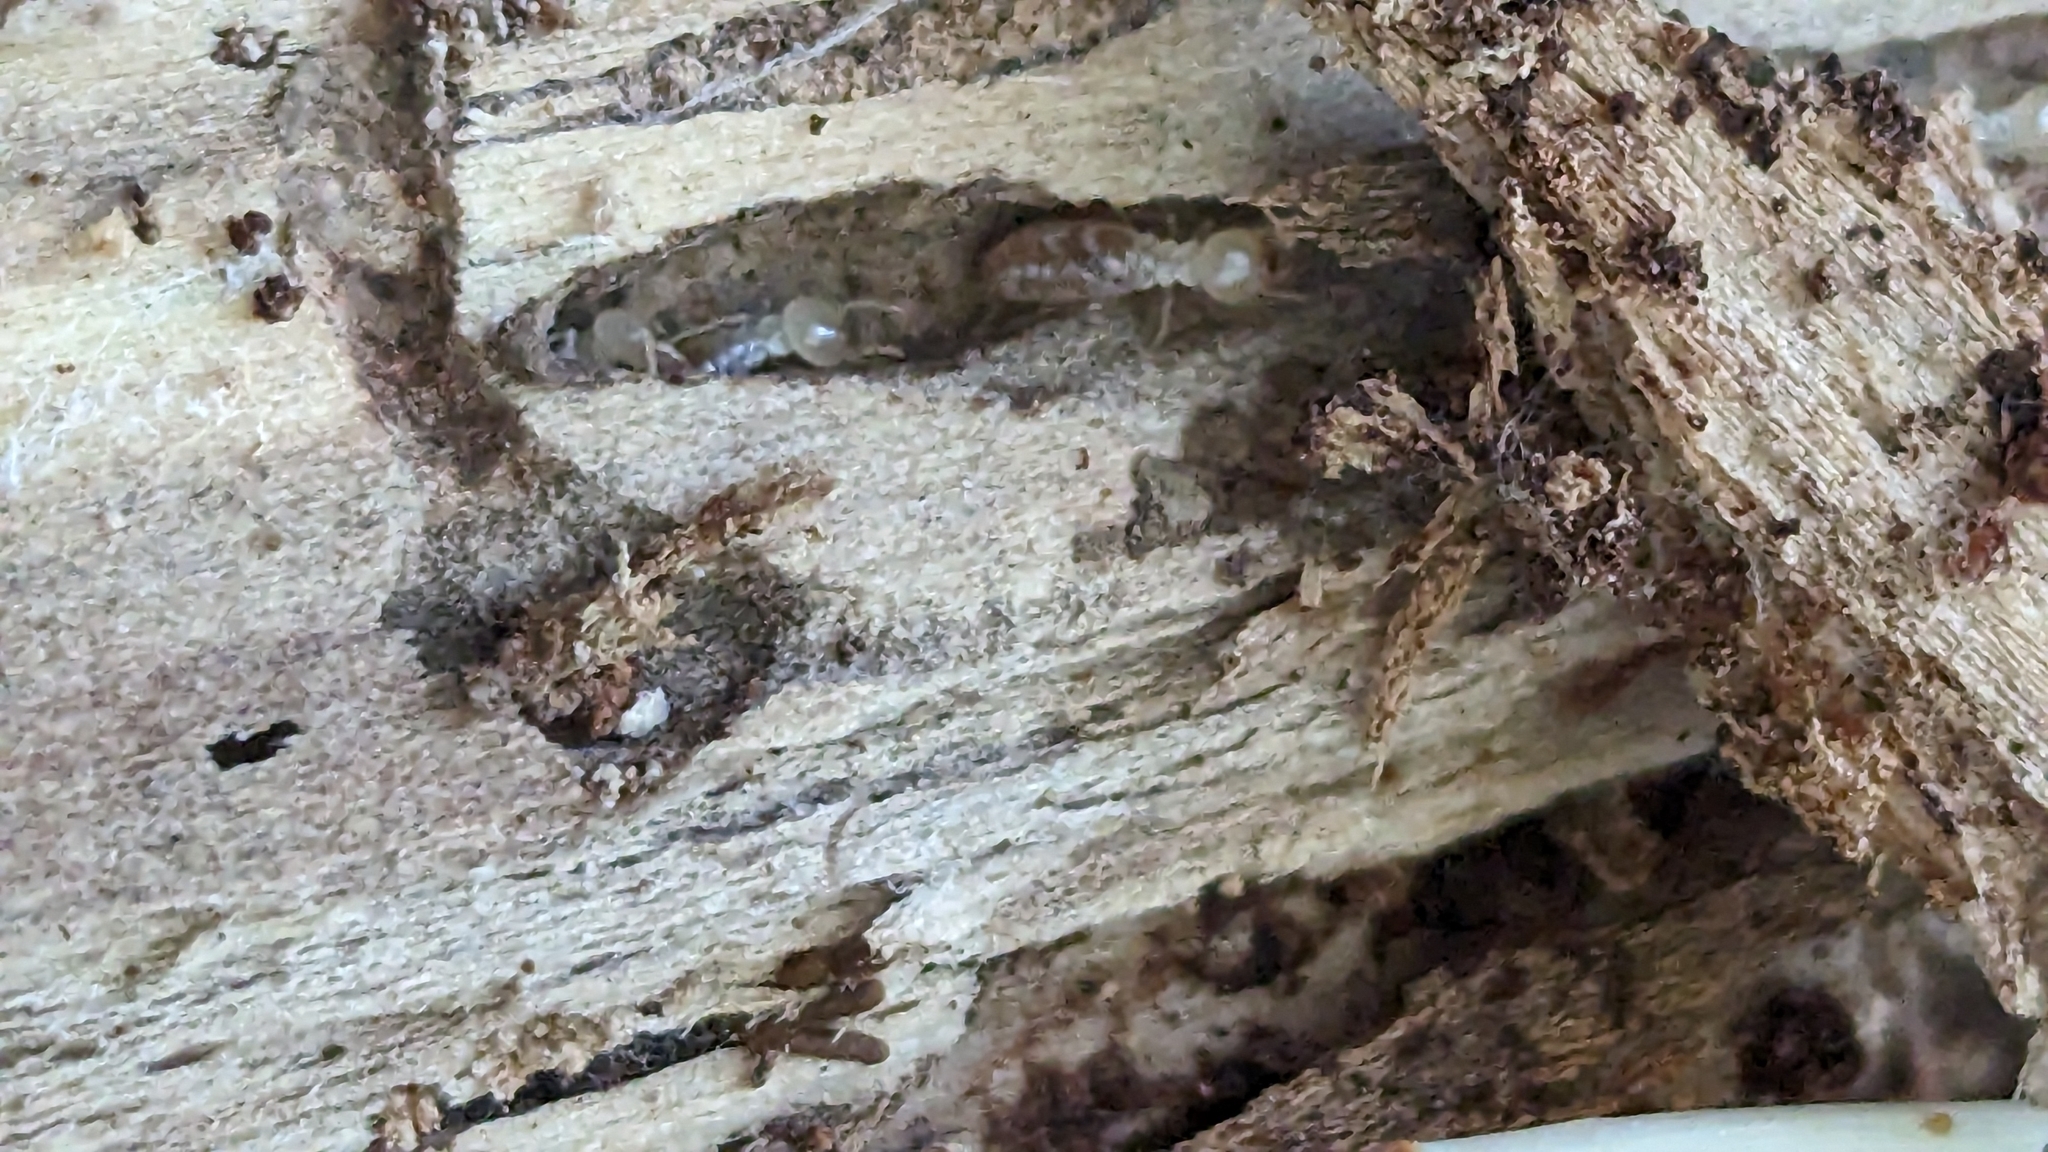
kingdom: Animalia
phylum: Arthropoda
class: Insecta
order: Blattodea
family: Rhinotermitidae
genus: Reticulitermes
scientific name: Reticulitermes
